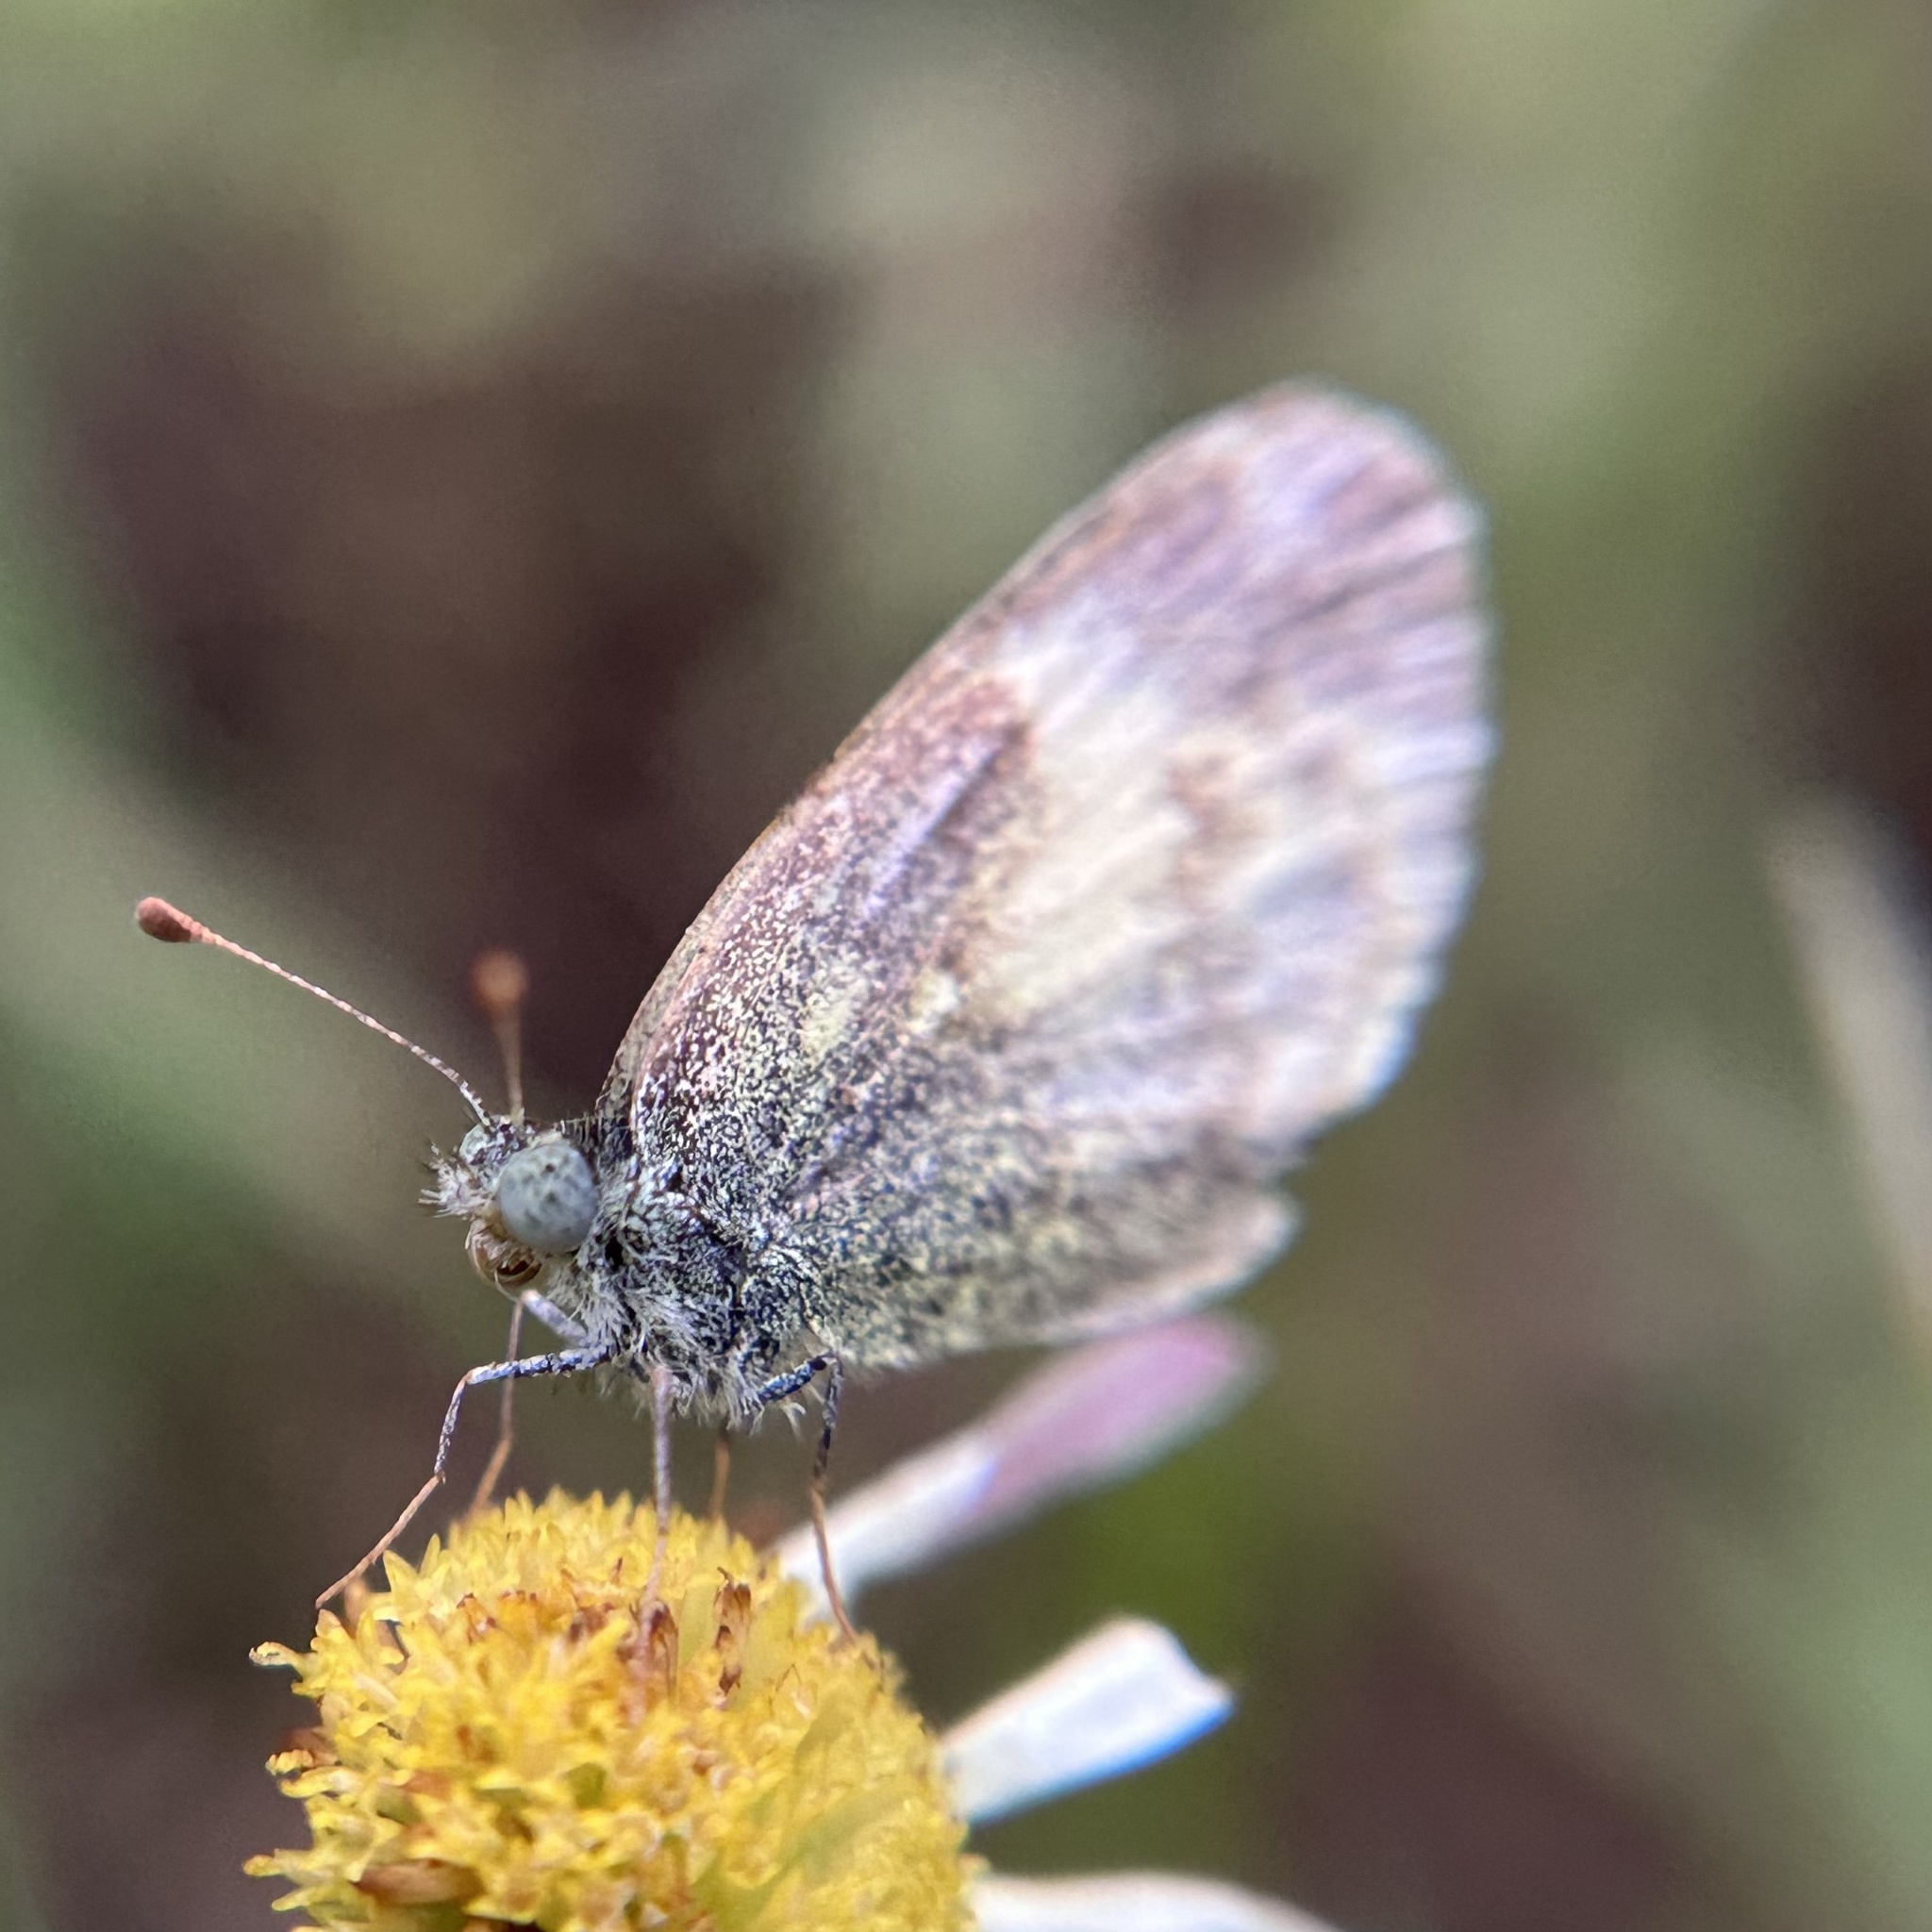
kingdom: Animalia
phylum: Arthropoda
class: Insecta
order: Lepidoptera
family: Pieridae
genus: Nathalis
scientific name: Nathalis iole
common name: Dainty sulphur
